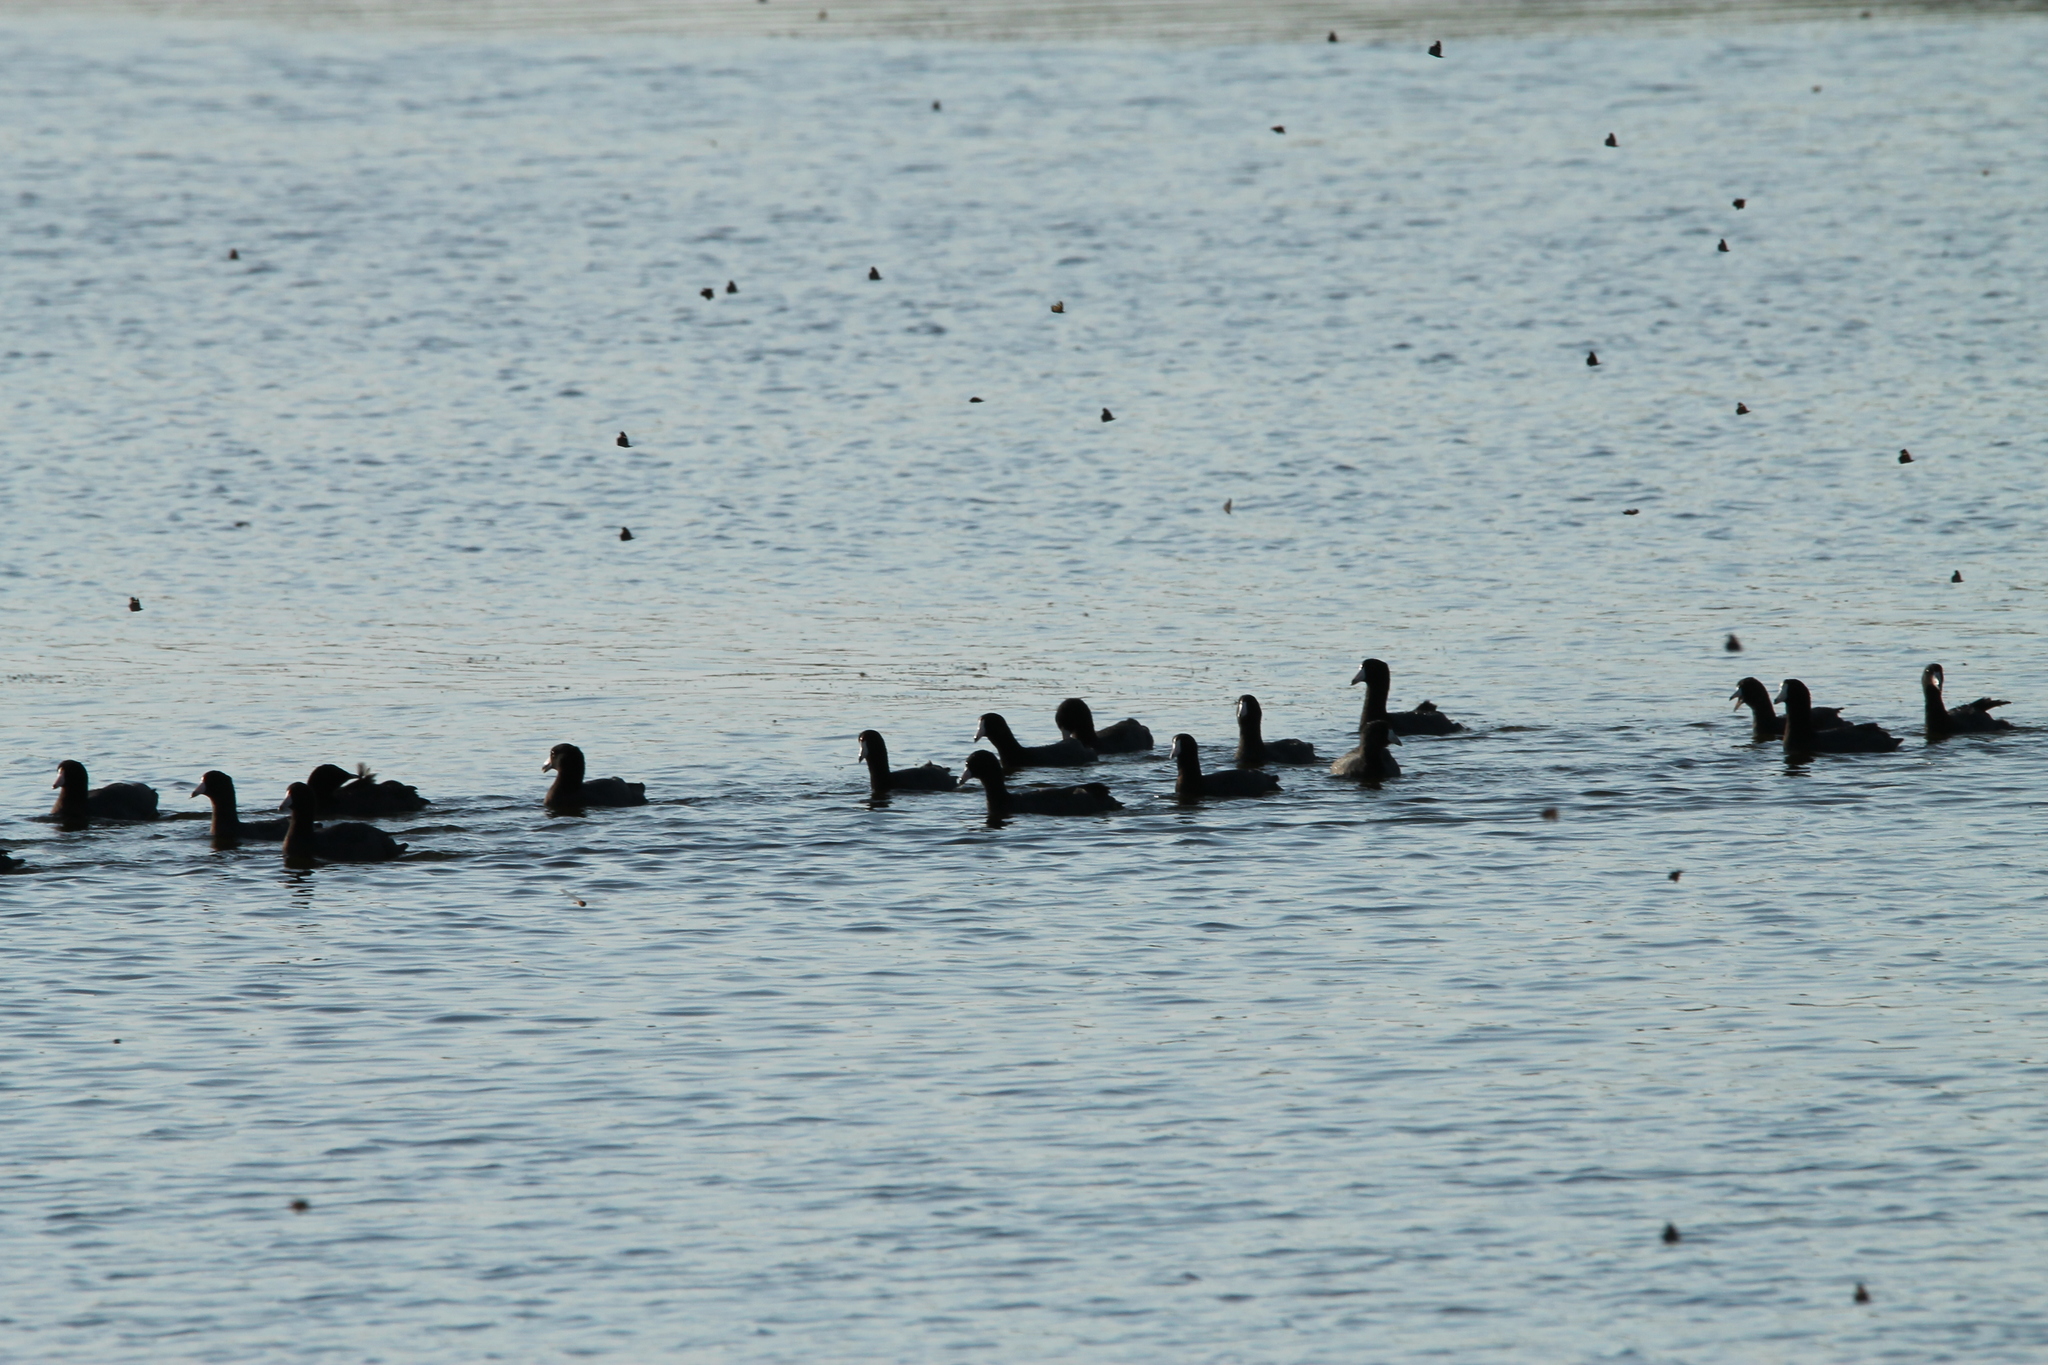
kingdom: Animalia
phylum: Arthropoda
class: Insecta
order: Lepidoptera
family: Nymphalidae
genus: Libytheana
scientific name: Libytheana carinenta
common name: American snout
